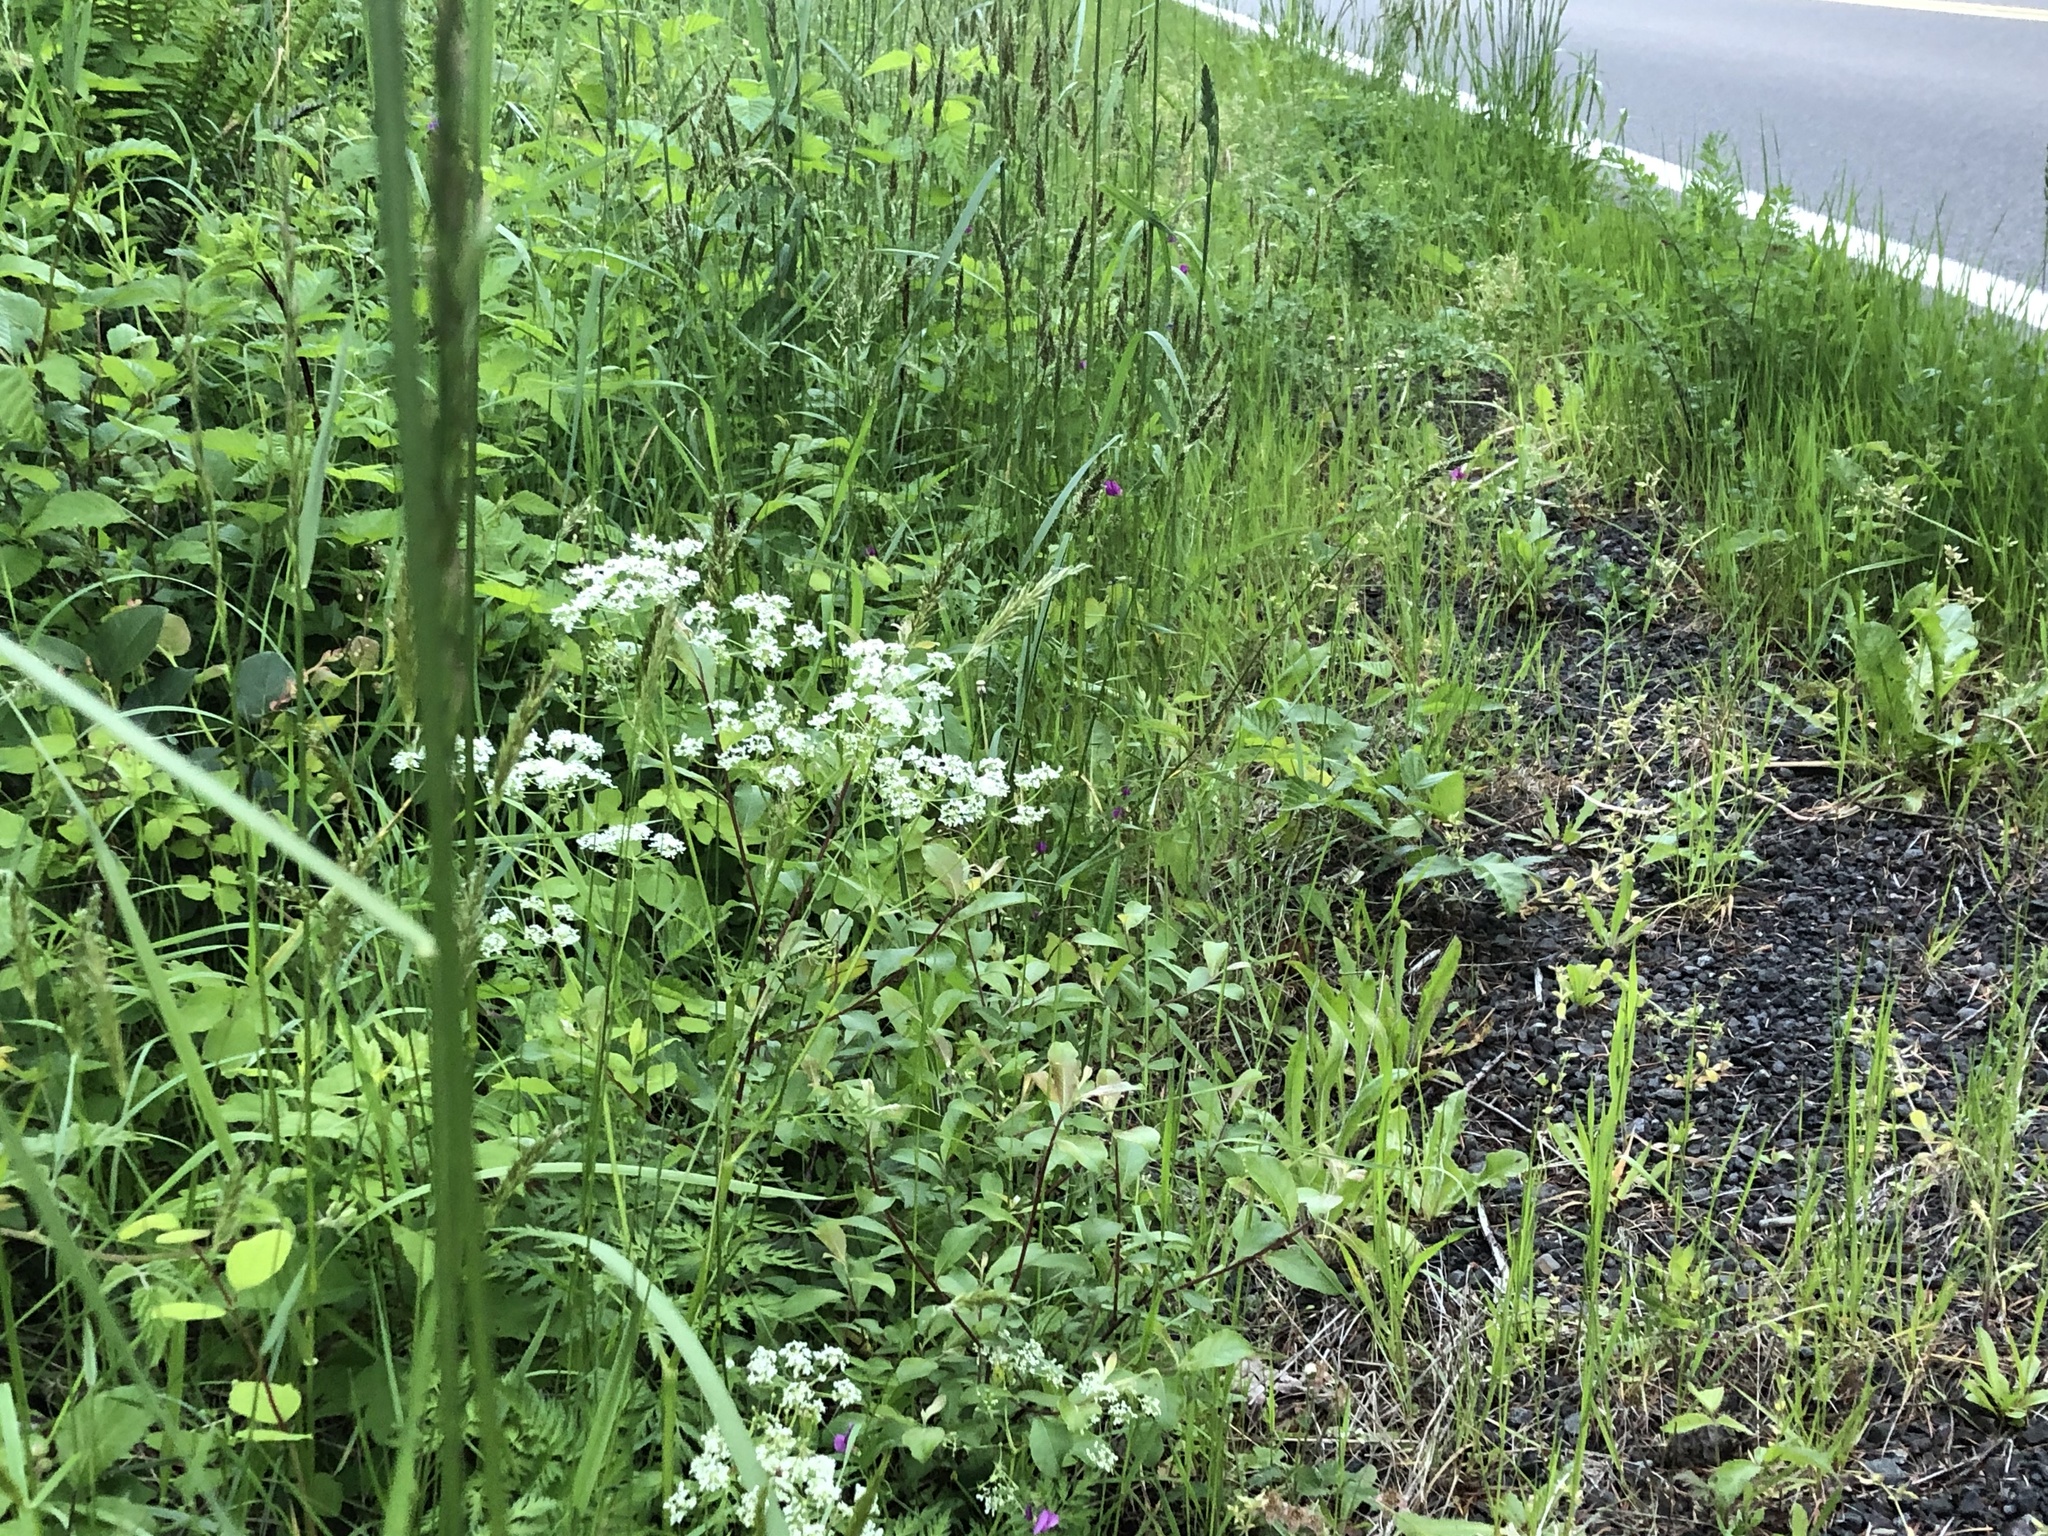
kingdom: Plantae
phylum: Tracheophyta
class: Magnoliopsida
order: Apiales
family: Apiaceae
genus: Anthriscus
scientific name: Anthriscus sylvestris
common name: Cow parsley
